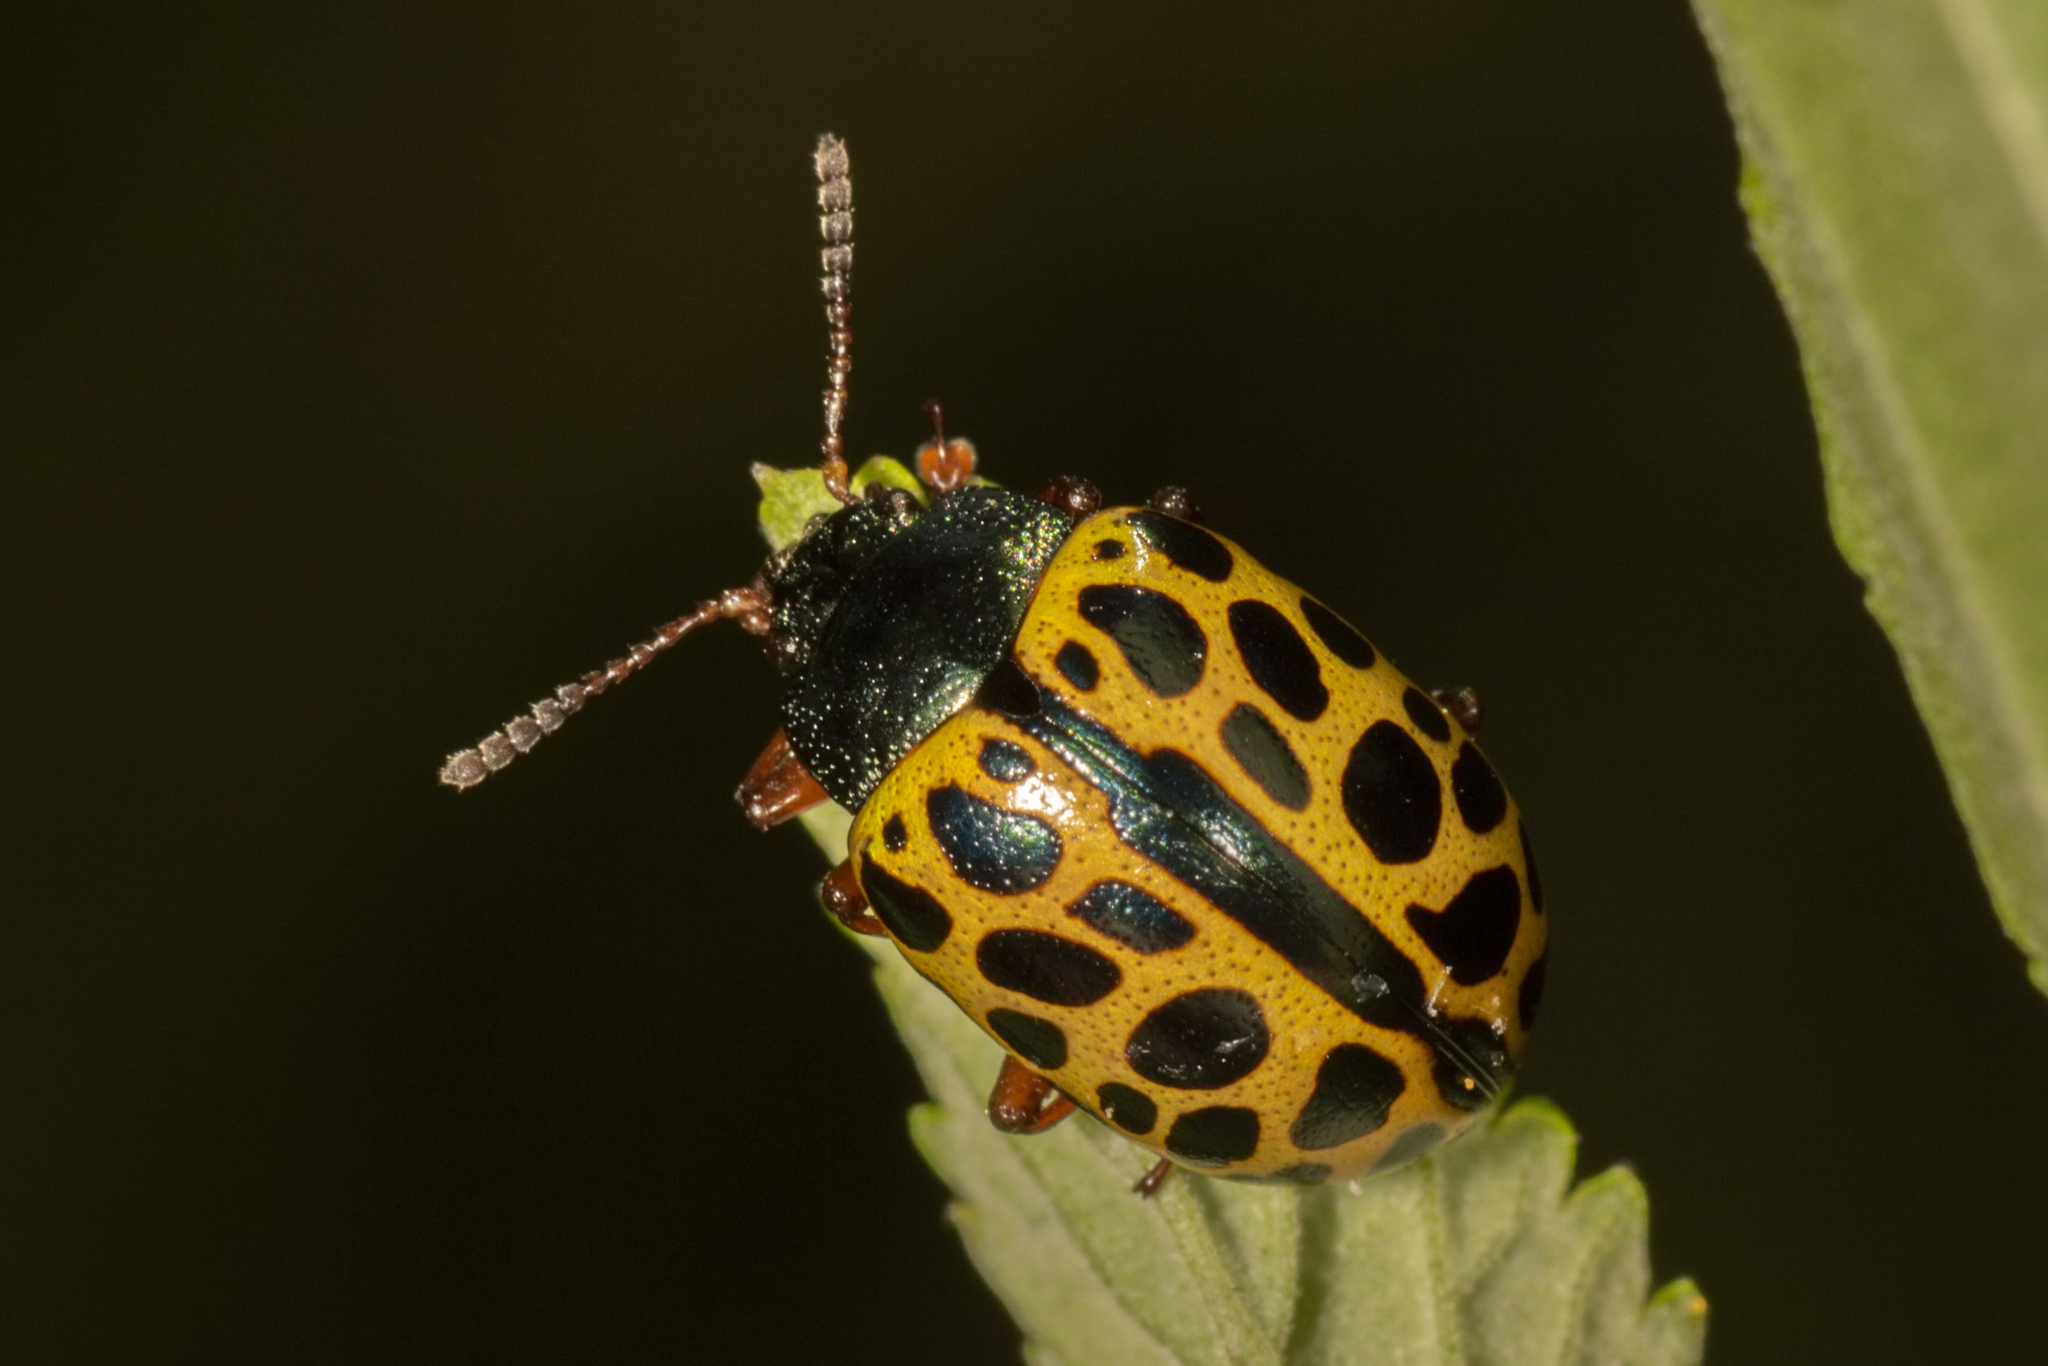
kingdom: Animalia
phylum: Arthropoda
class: Insecta
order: Coleoptera
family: Chrysomelidae
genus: Calligrapha
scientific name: Calligrapha polyspila
